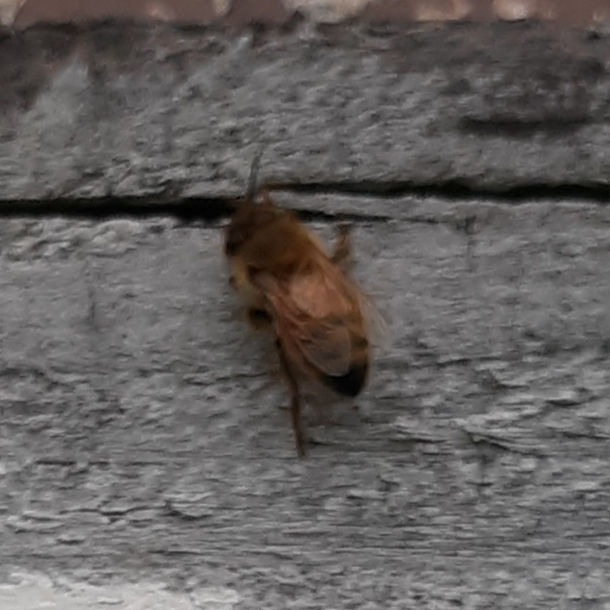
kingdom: Animalia
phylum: Arthropoda
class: Insecta
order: Hymenoptera
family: Apidae
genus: Apis
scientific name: Apis mellifera
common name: Honey bee
